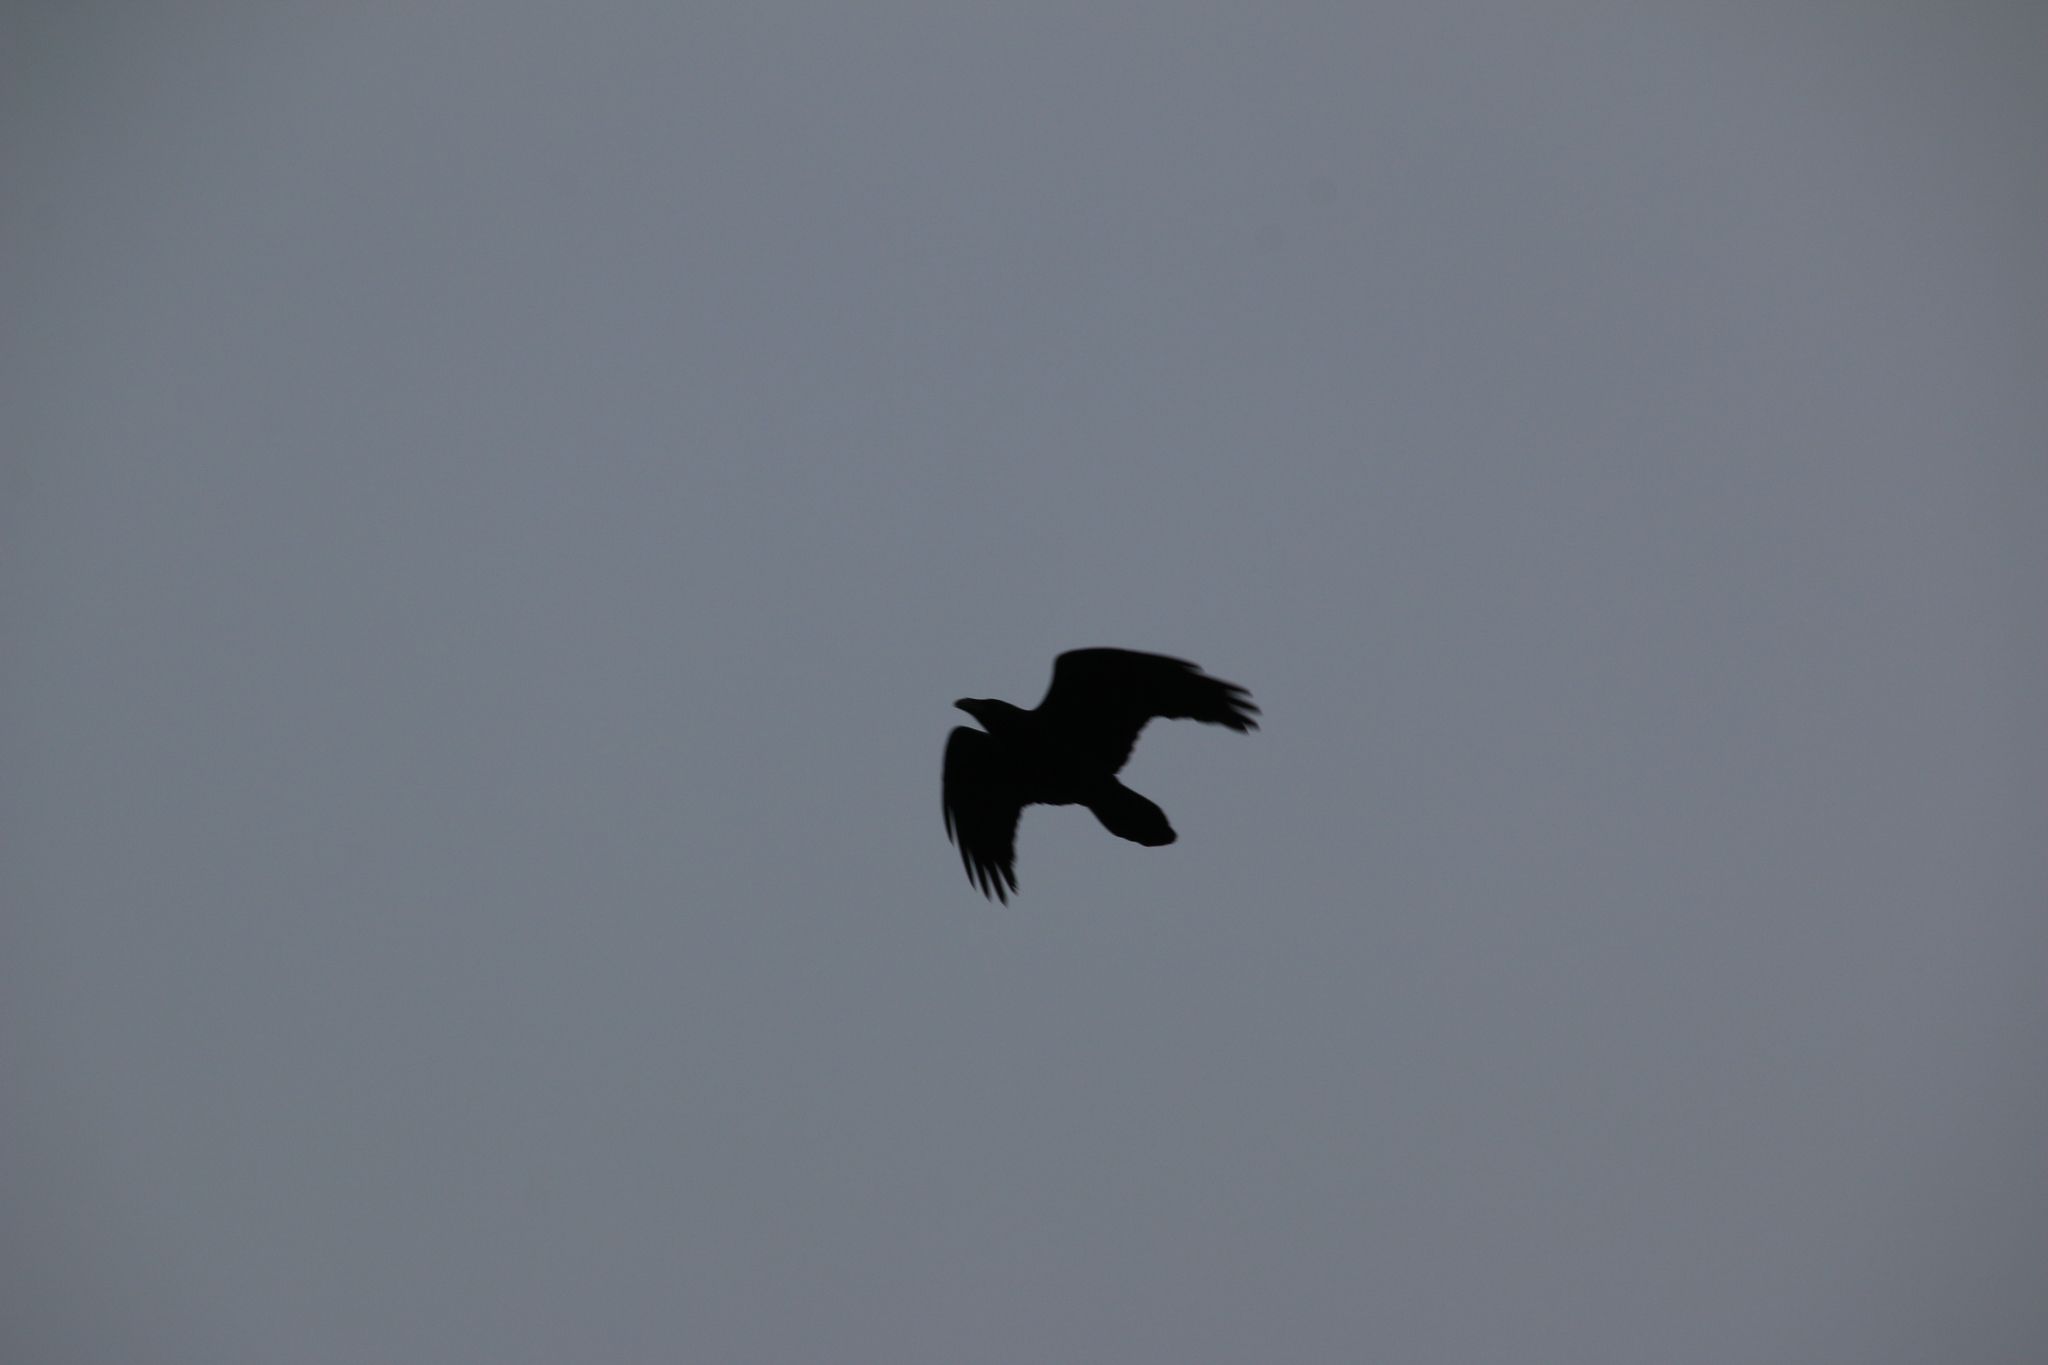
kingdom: Animalia
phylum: Chordata
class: Aves
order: Passeriformes
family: Corvidae
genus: Corvus
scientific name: Corvus corax
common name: Common raven
